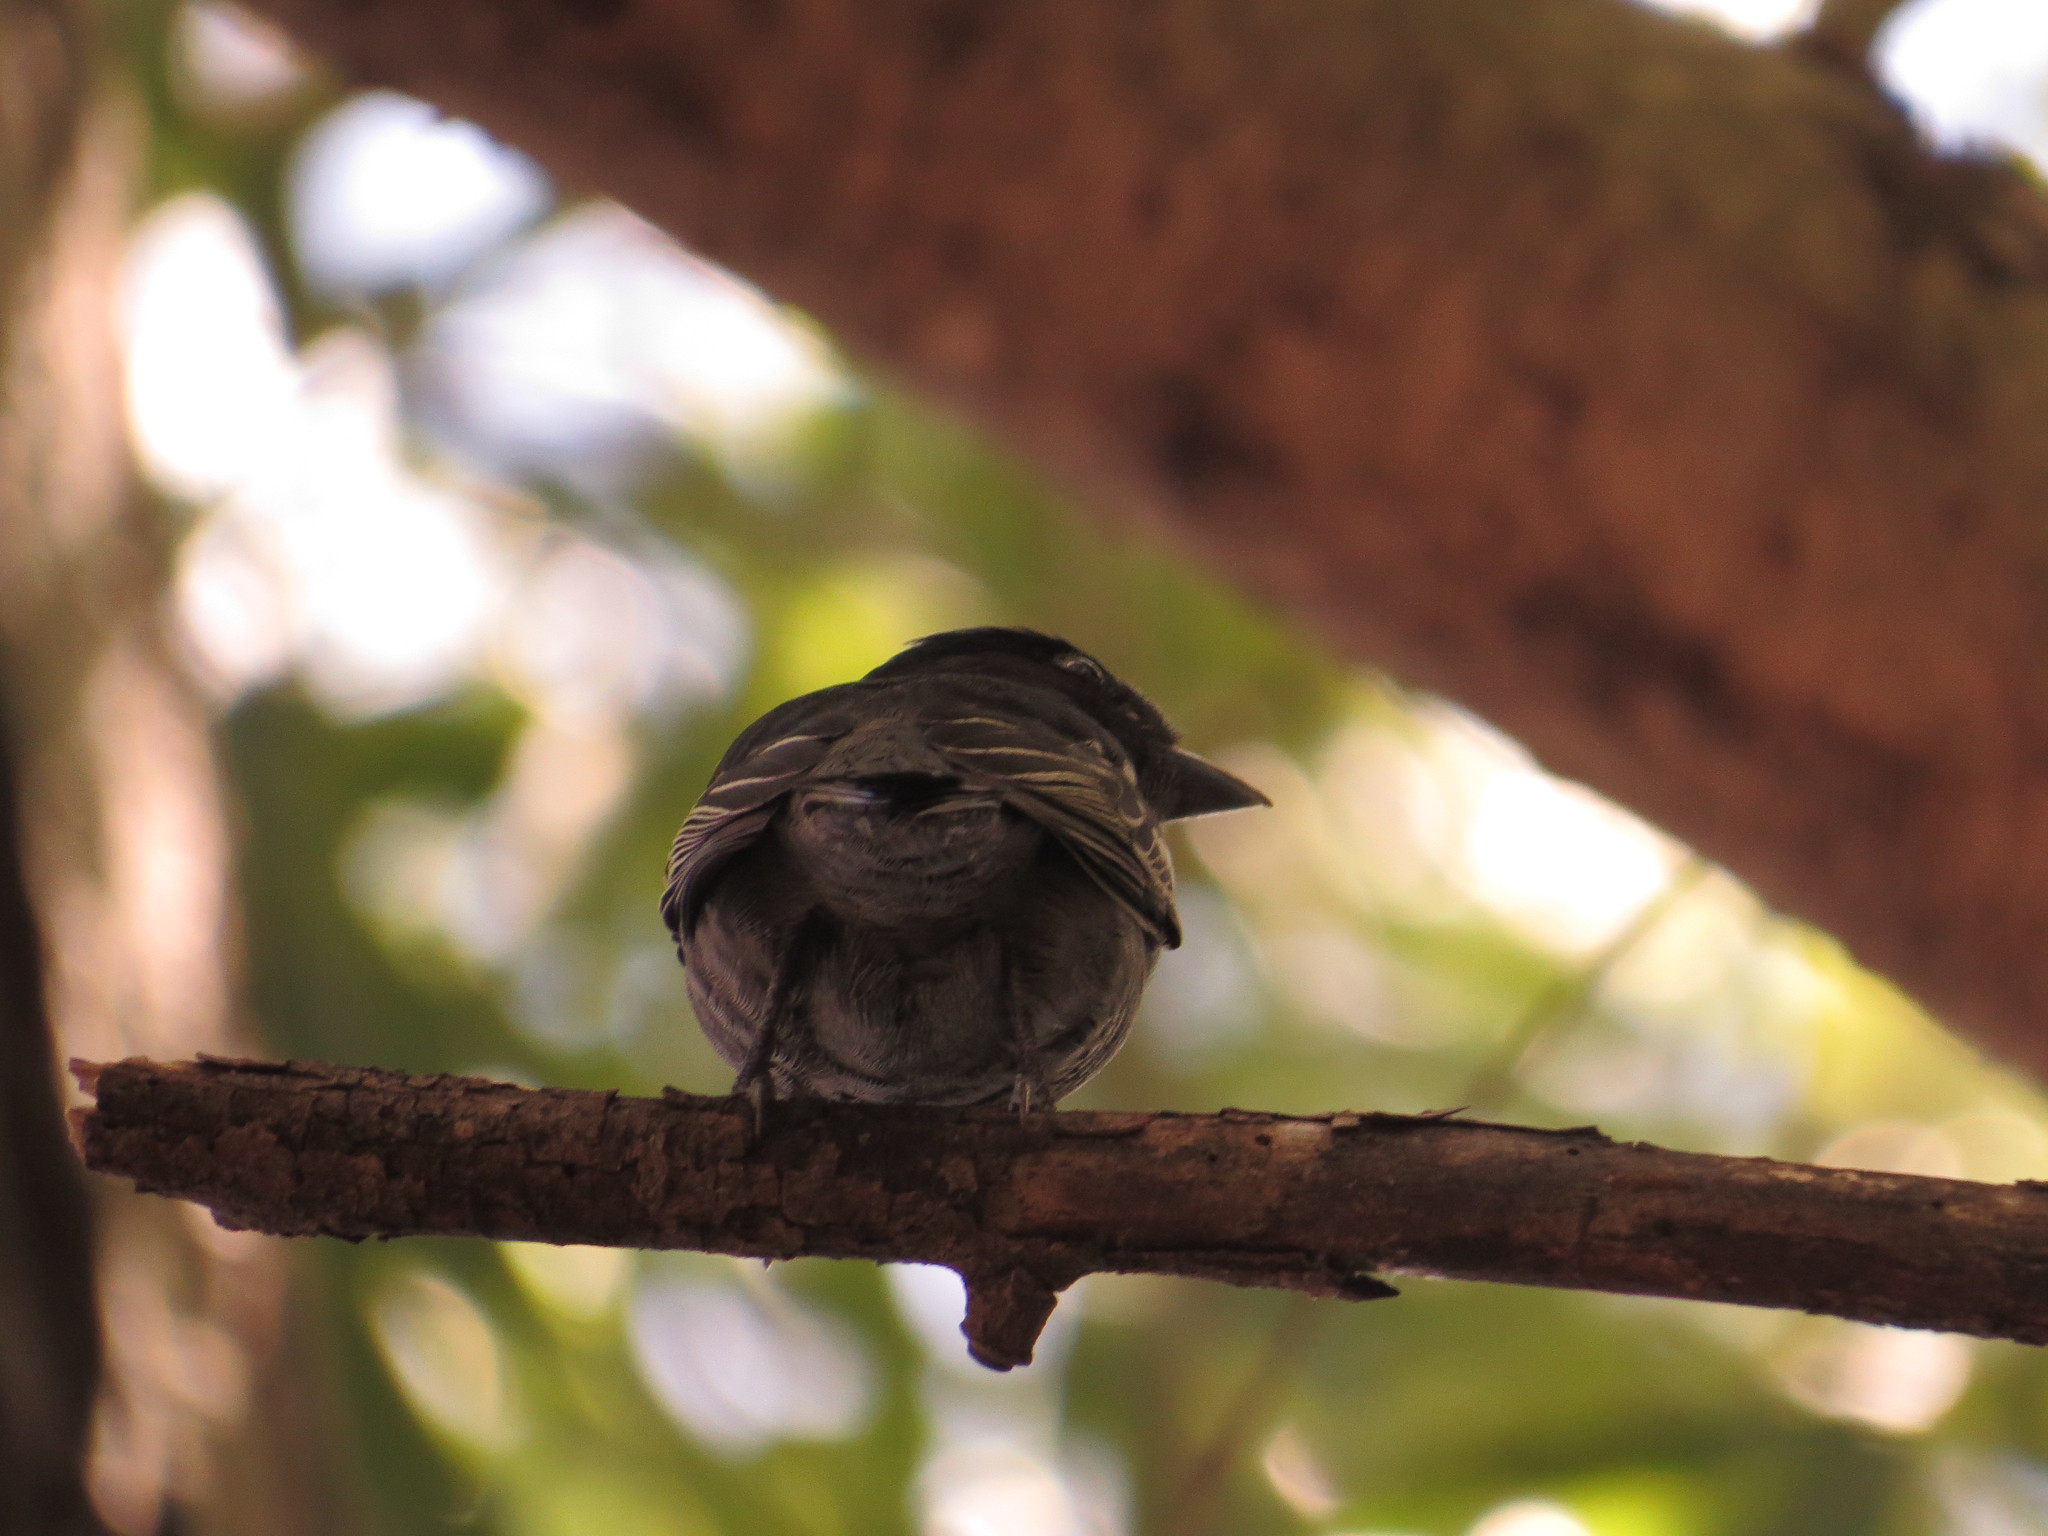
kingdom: Animalia
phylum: Chordata
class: Aves
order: Passeriformes
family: Cotingidae
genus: Pachyramphus
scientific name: Pachyramphus polychopterus
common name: White-winged becard
